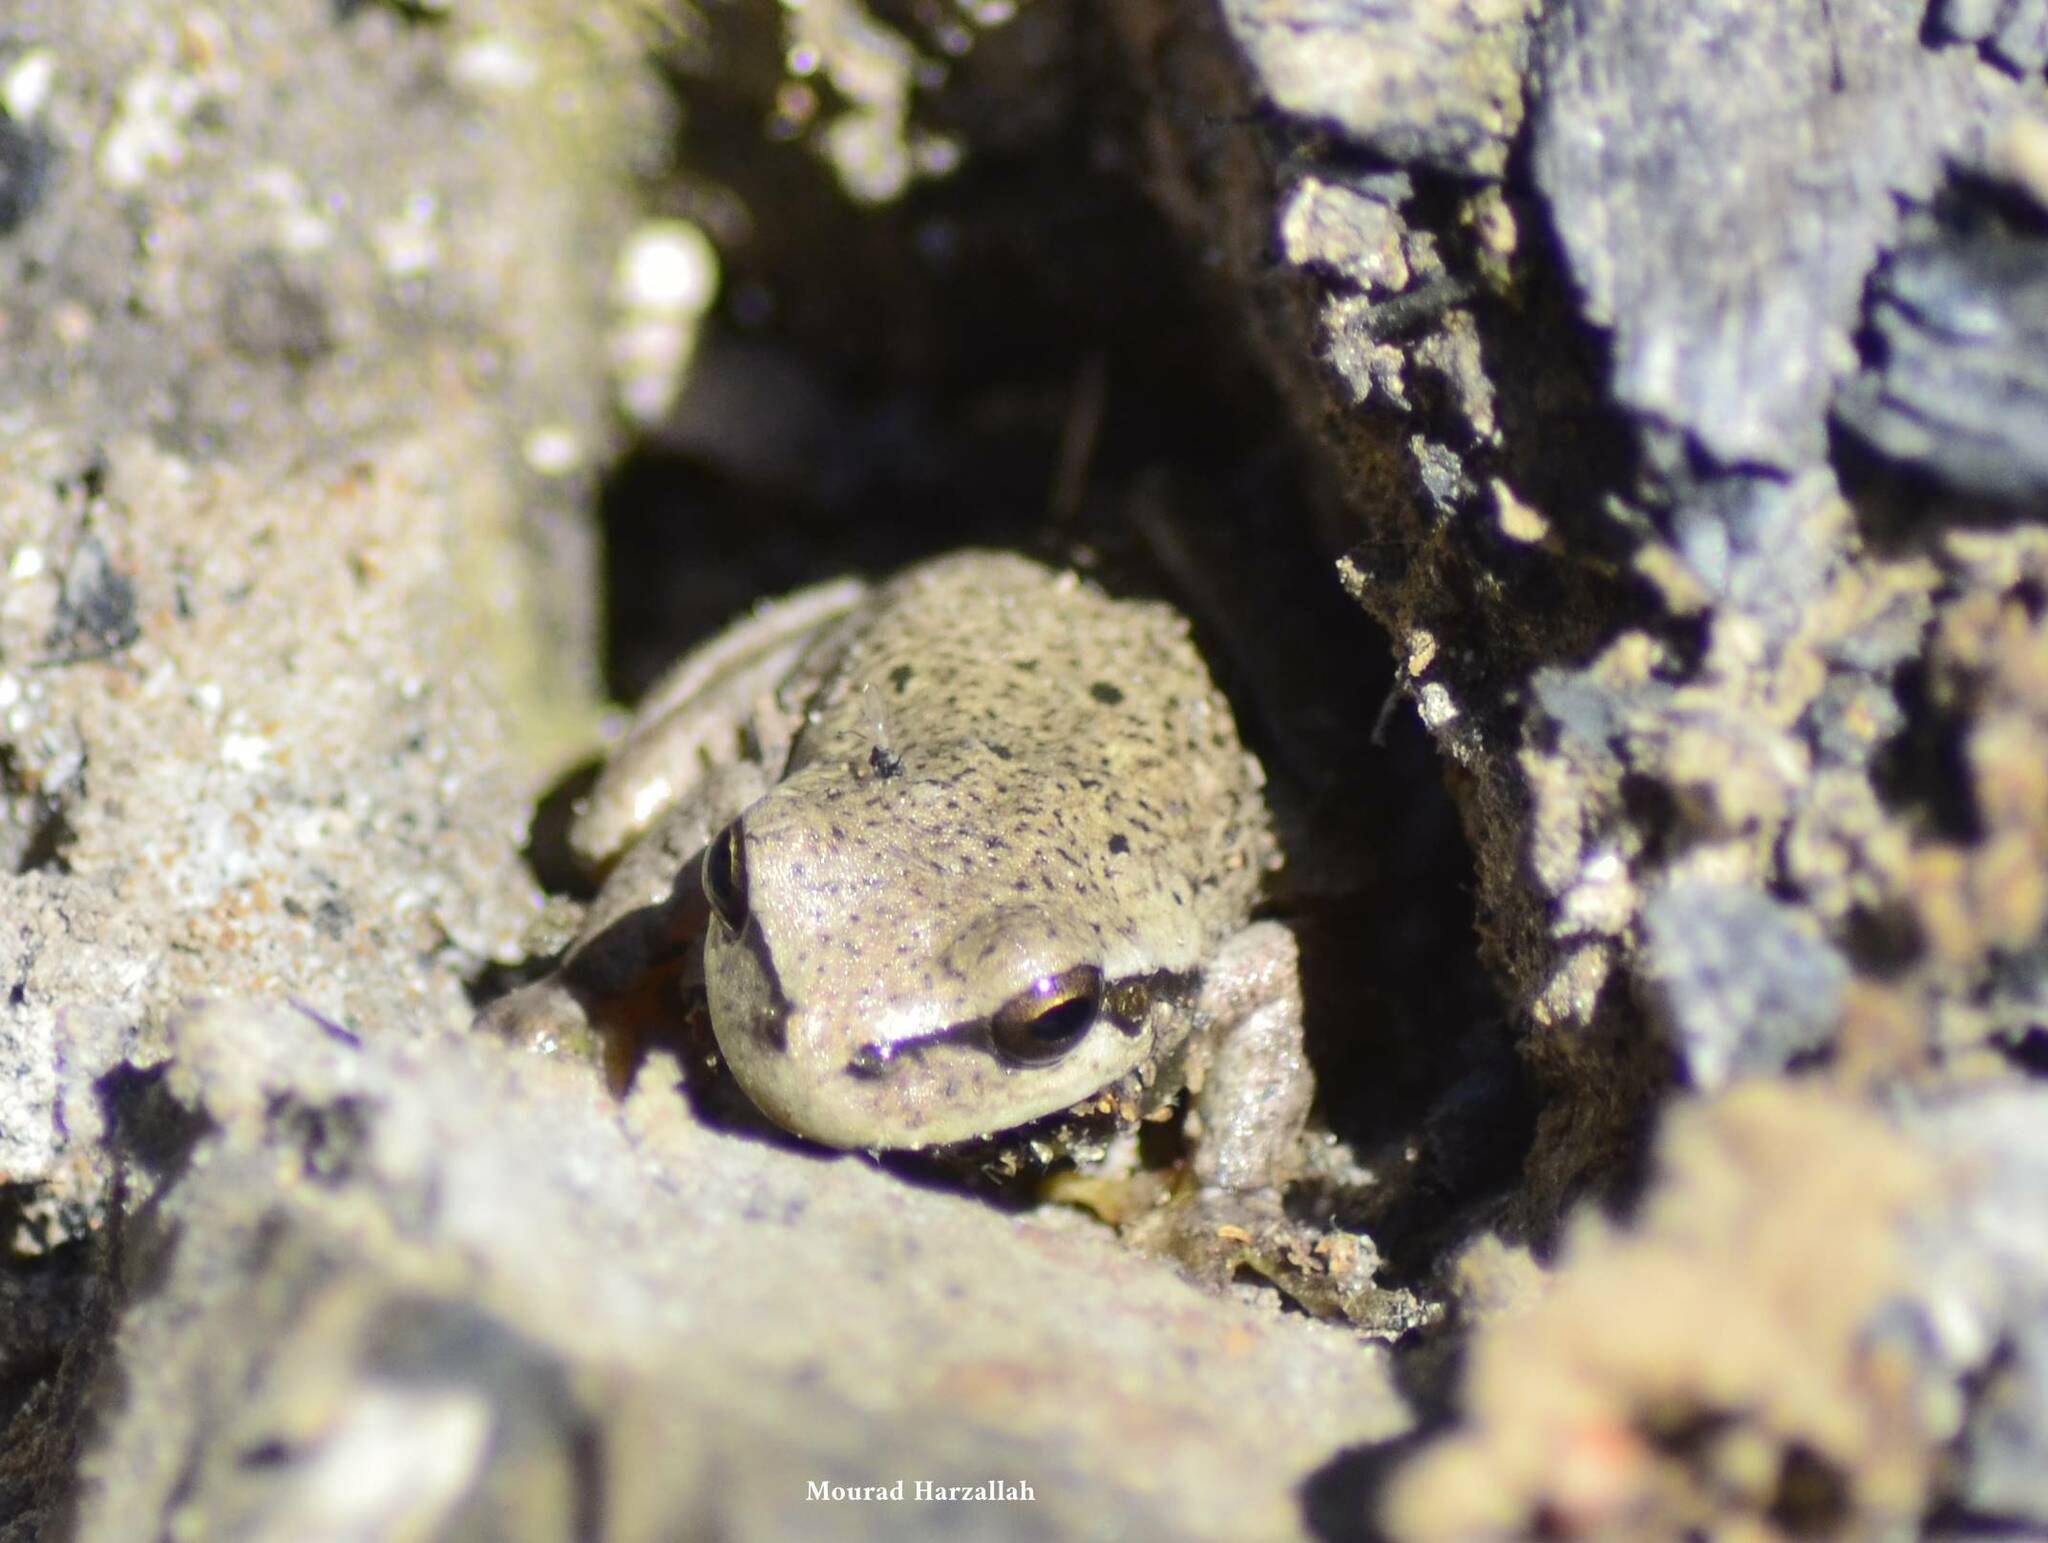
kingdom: Animalia
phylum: Chordata
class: Amphibia
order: Anura
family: Hylidae
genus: Hyla
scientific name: Hyla meridionalis
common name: Stripeless tree frog
